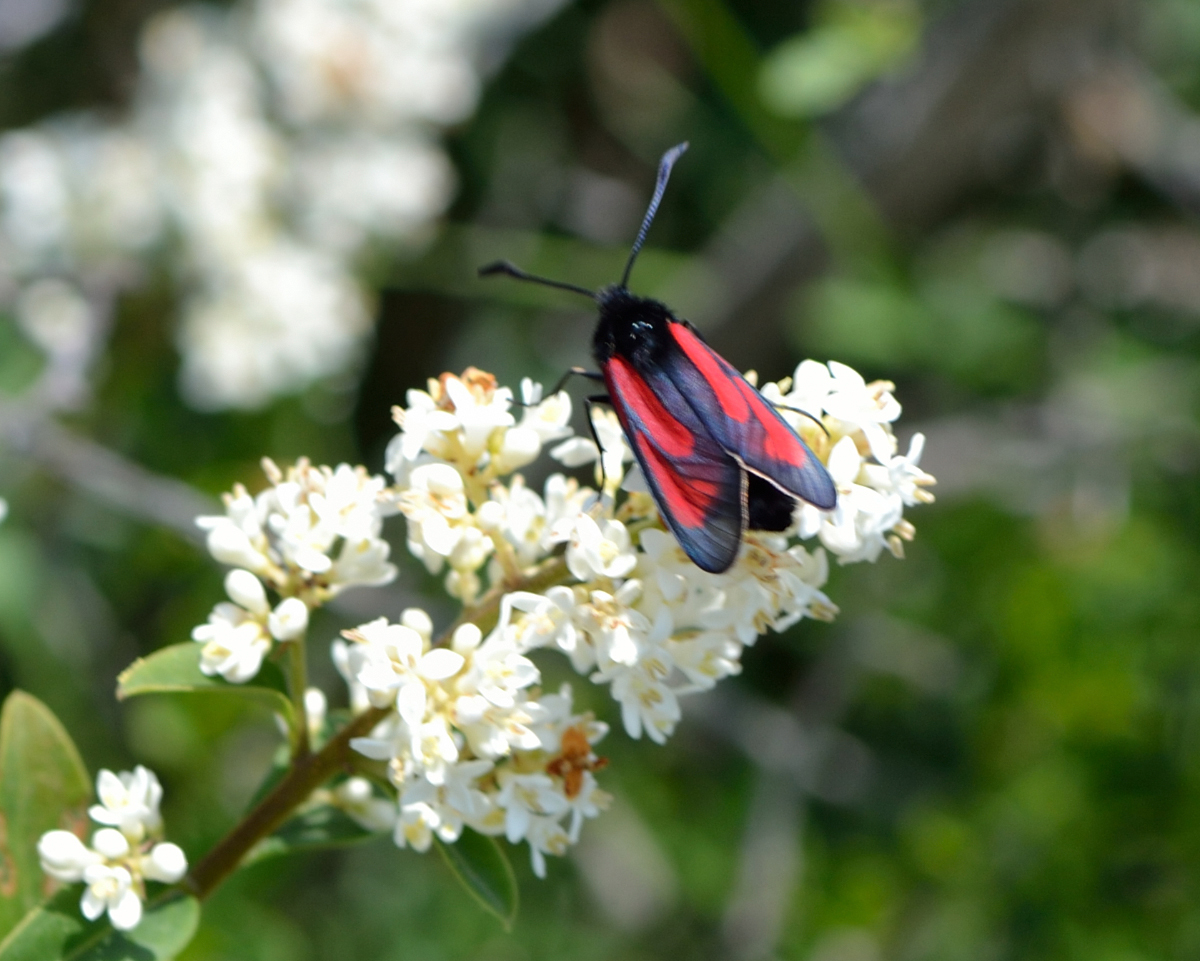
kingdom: Animalia
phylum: Arthropoda
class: Insecta
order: Lepidoptera
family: Zygaenidae
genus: Zygaena
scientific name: Zygaena purpuralis
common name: Transparent burnet
